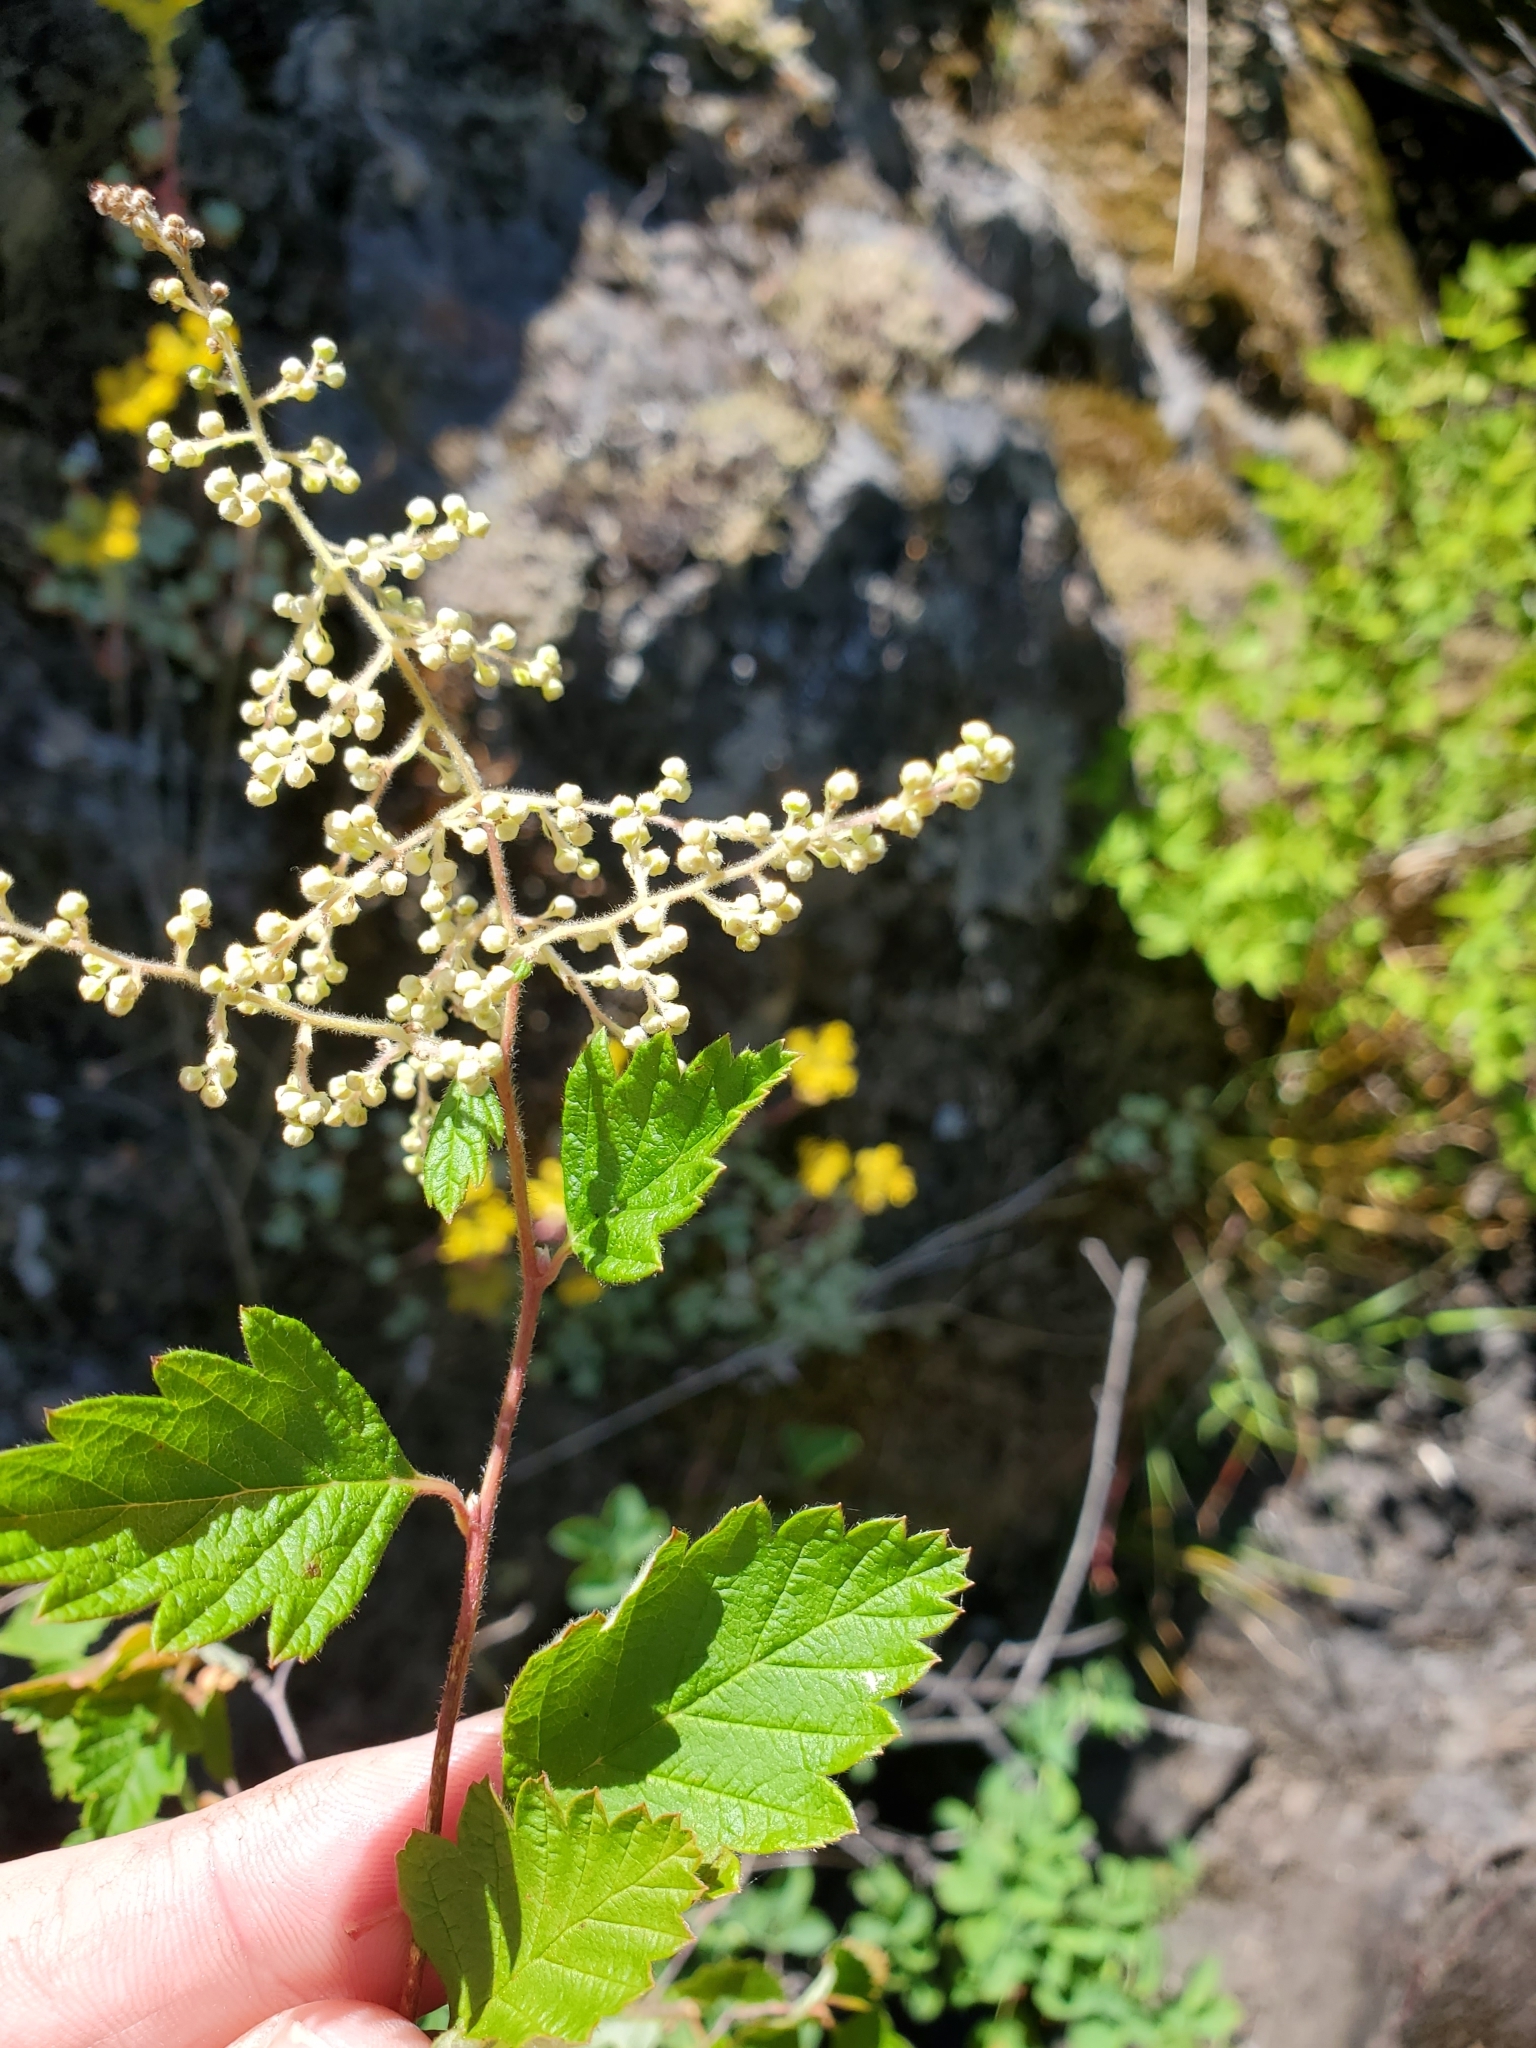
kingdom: Plantae
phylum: Tracheophyta
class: Magnoliopsida
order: Rosales
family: Rosaceae
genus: Holodiscus
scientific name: Holodiscus discolor
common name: Oceanspray
